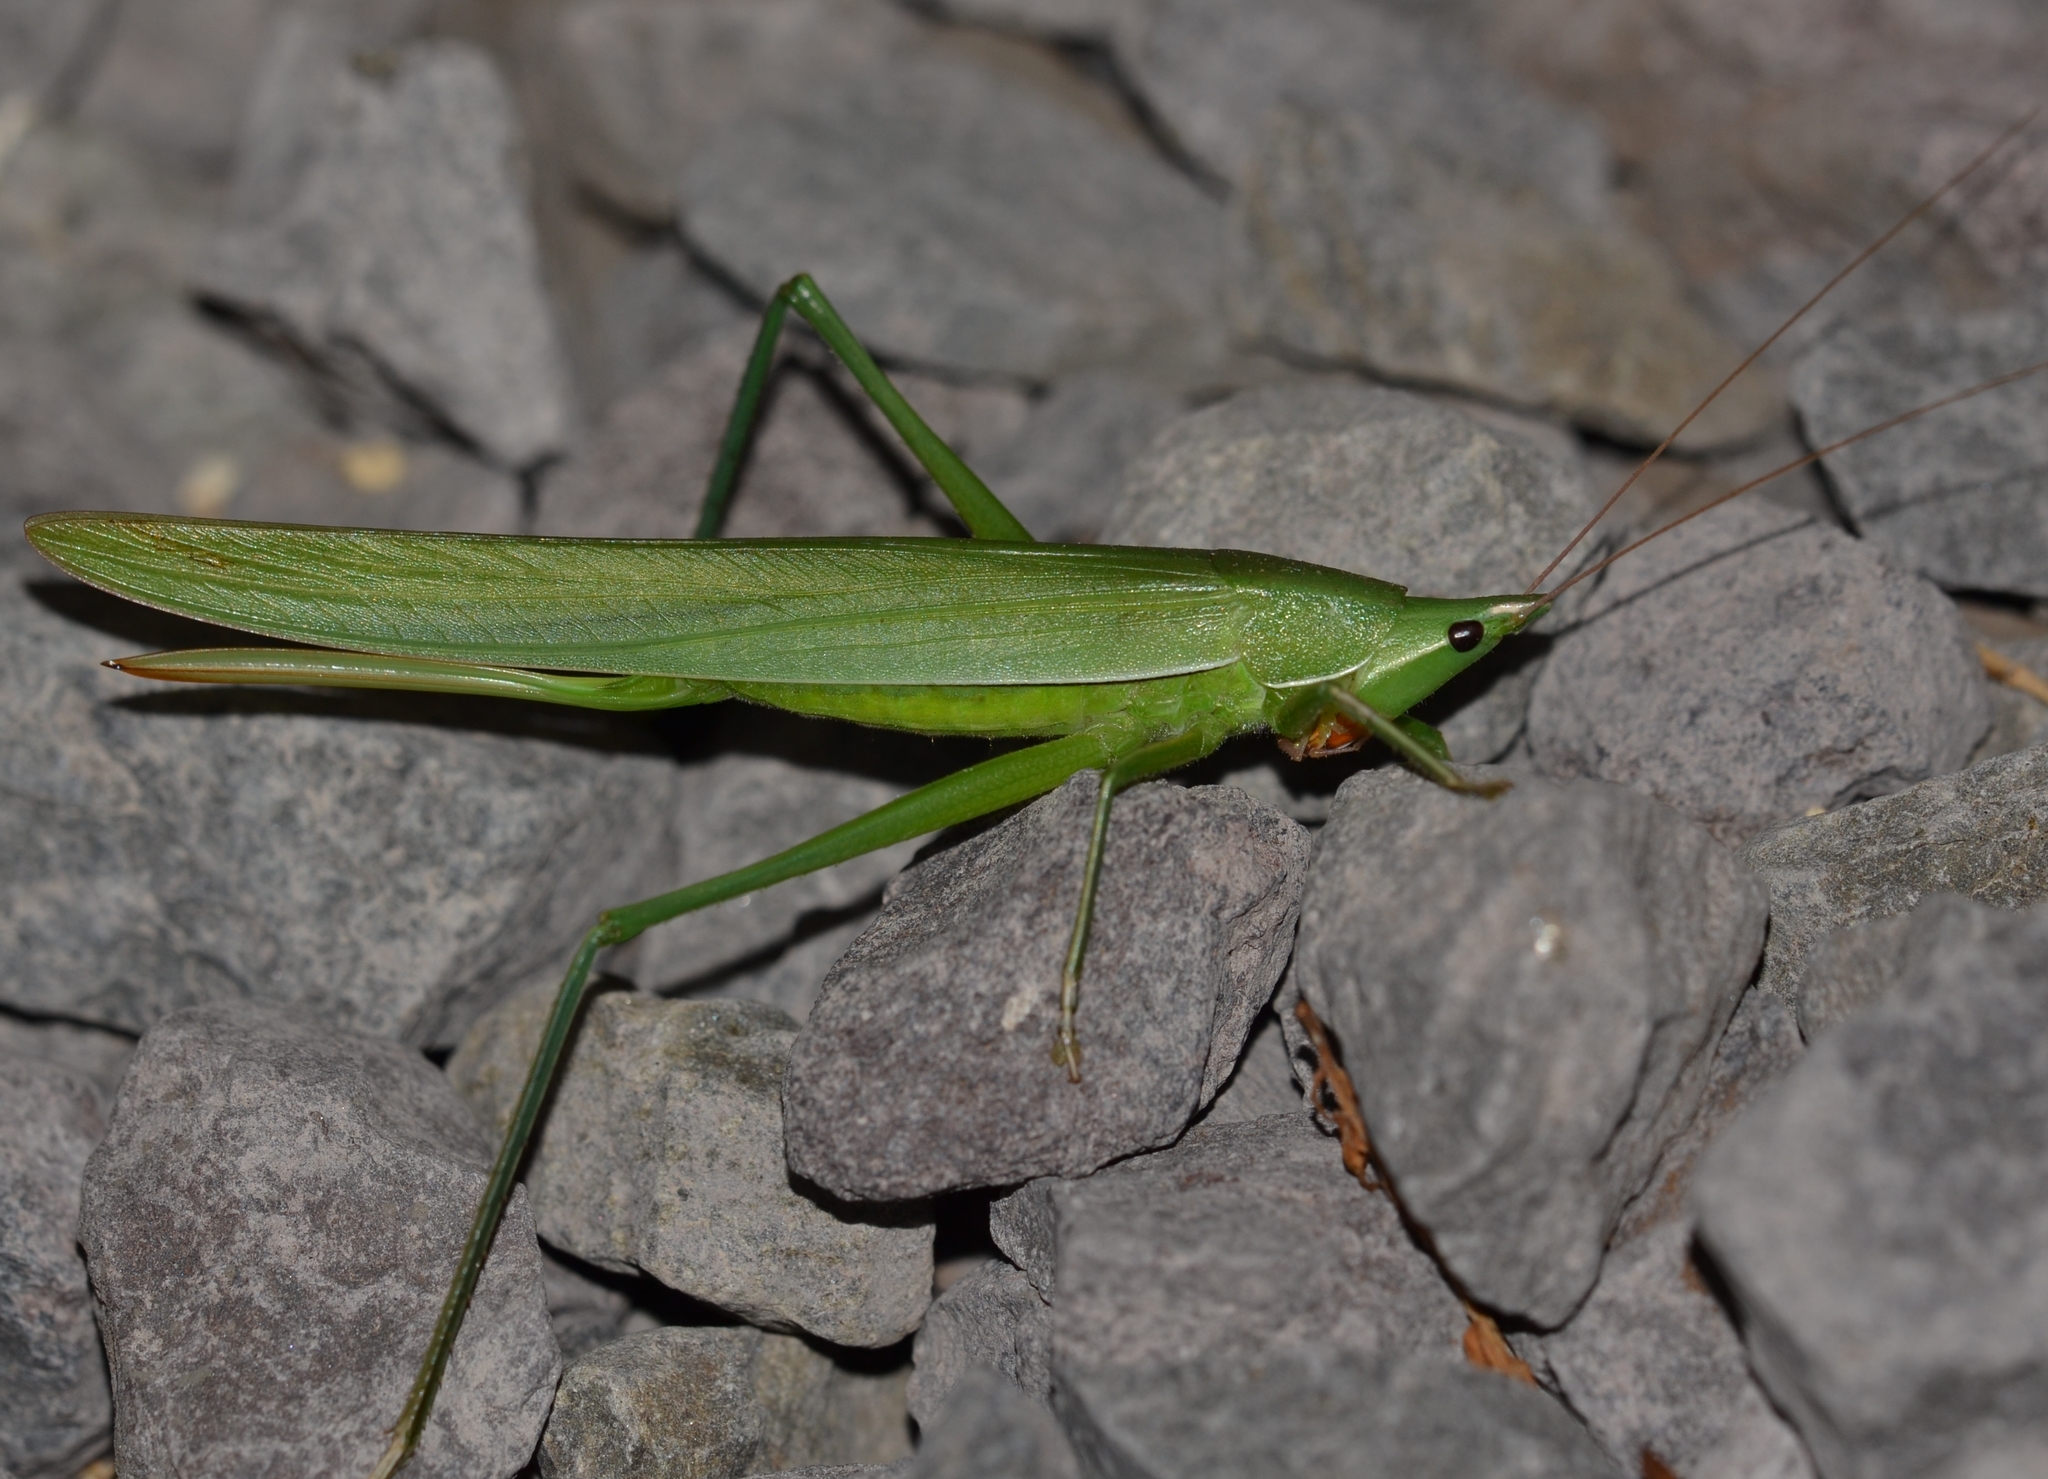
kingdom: Animalia
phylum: Arthropoda
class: Insecta
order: Orthoptera
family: Tettigoniidae
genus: Euconocephalus
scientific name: Euconocephalus nasutus
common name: Grasshopper
